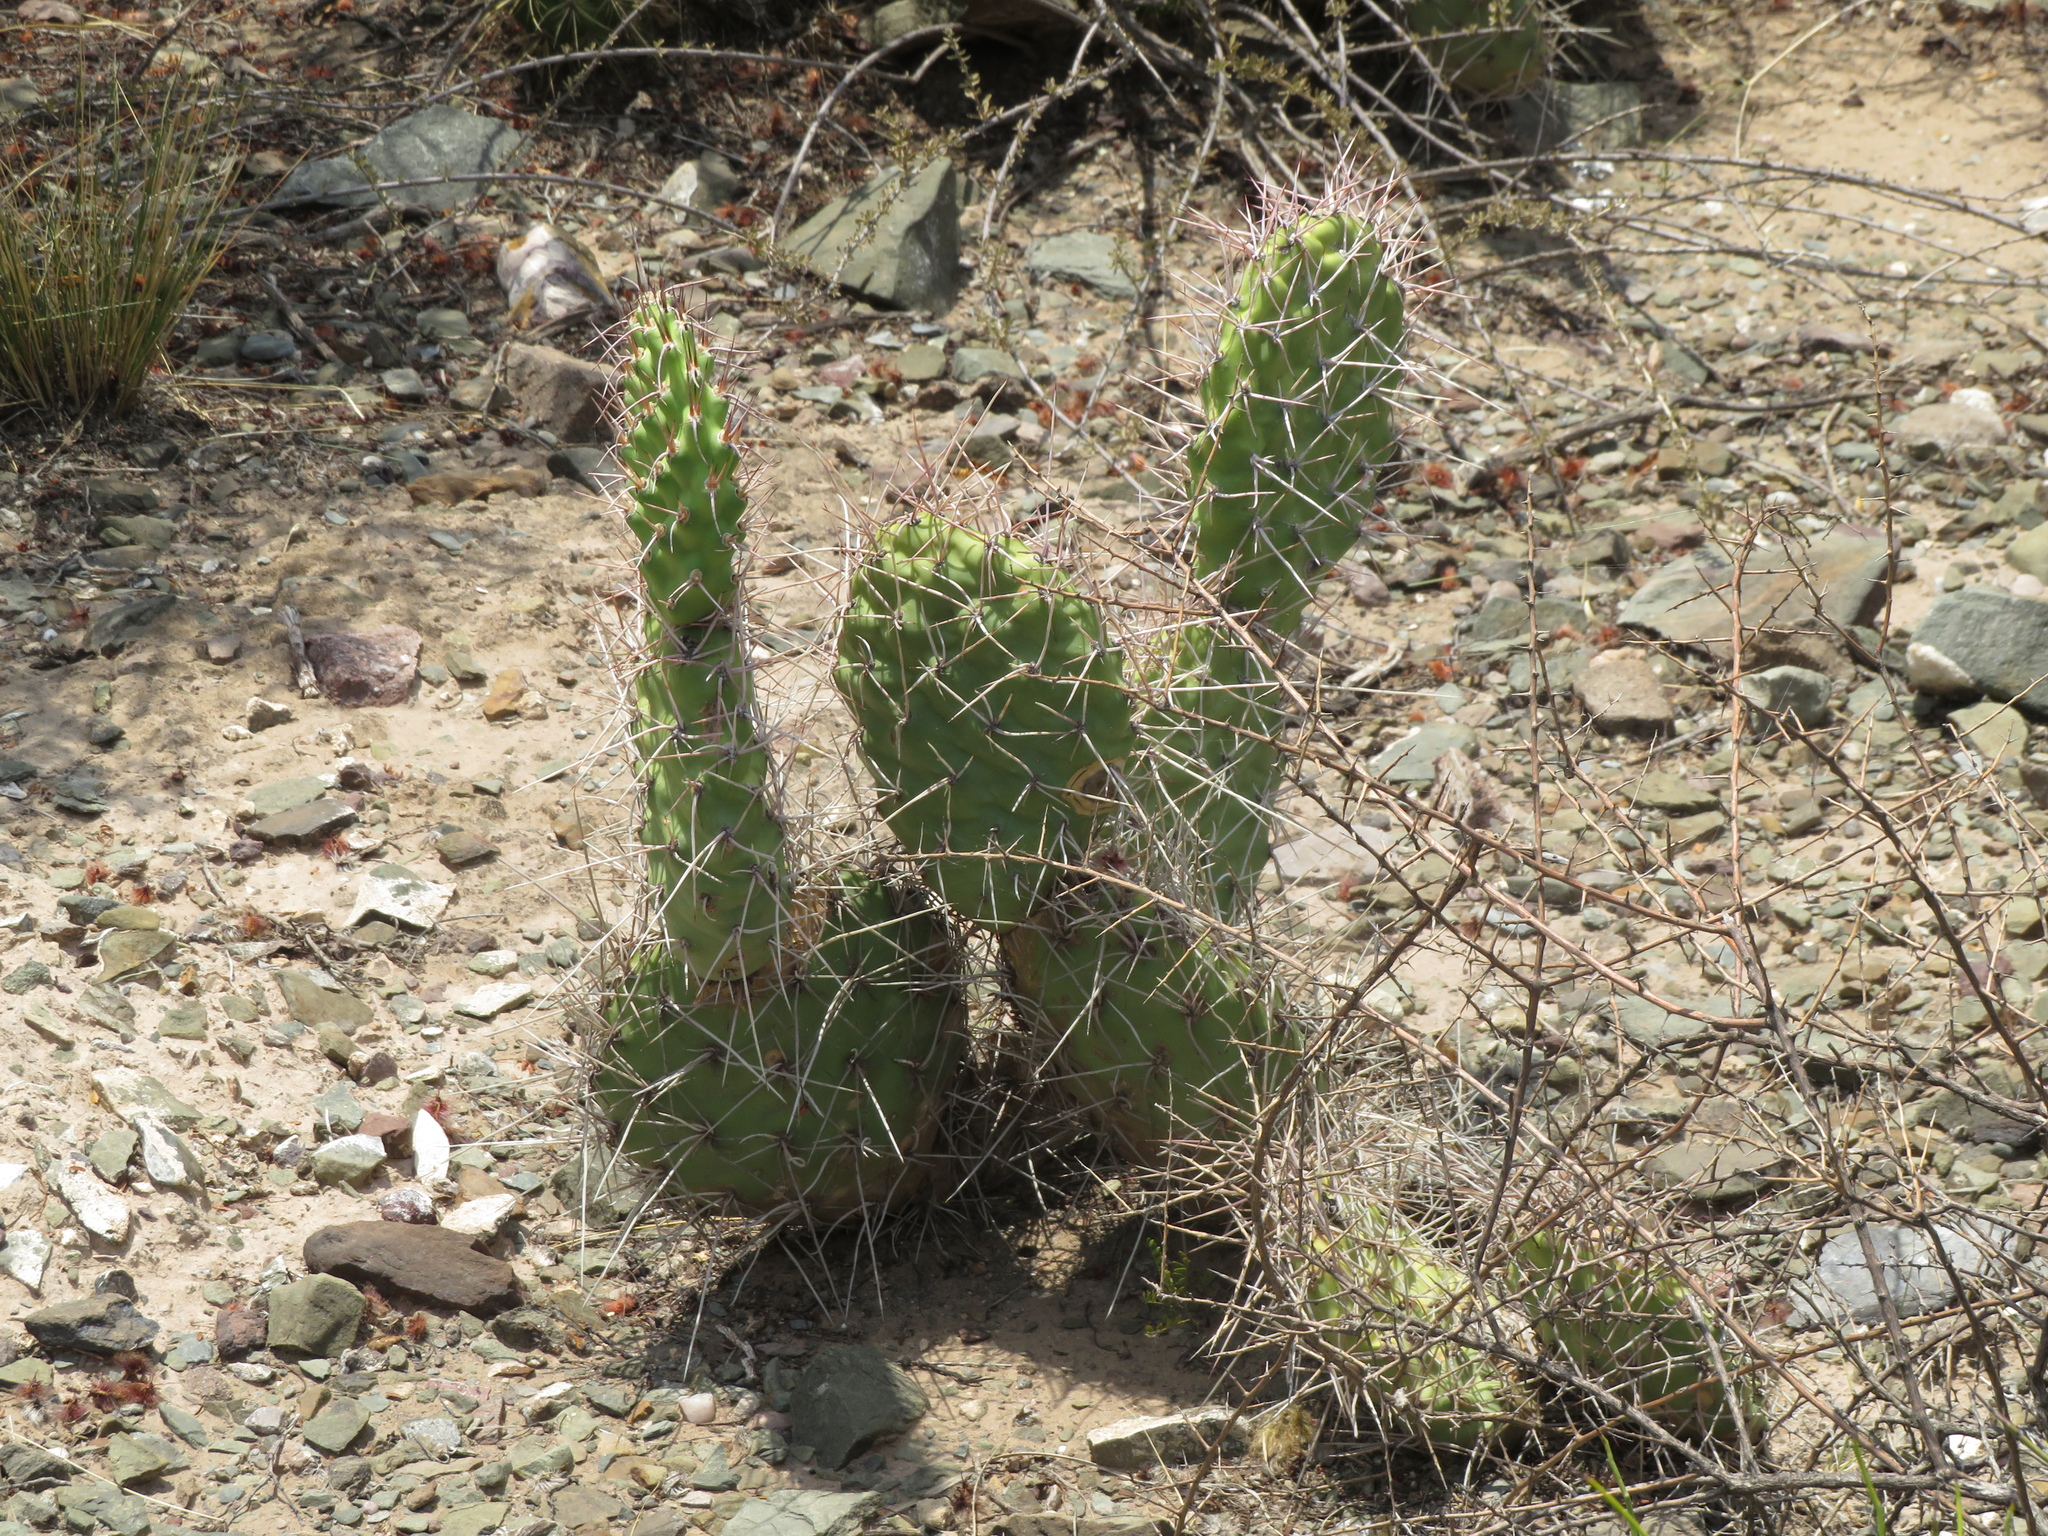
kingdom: Plantae
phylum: Tracheophyta
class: Magnoliopsida
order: Caryophyllales
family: Cactaceae
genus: Opuntia
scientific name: Opuntia sulphurea
